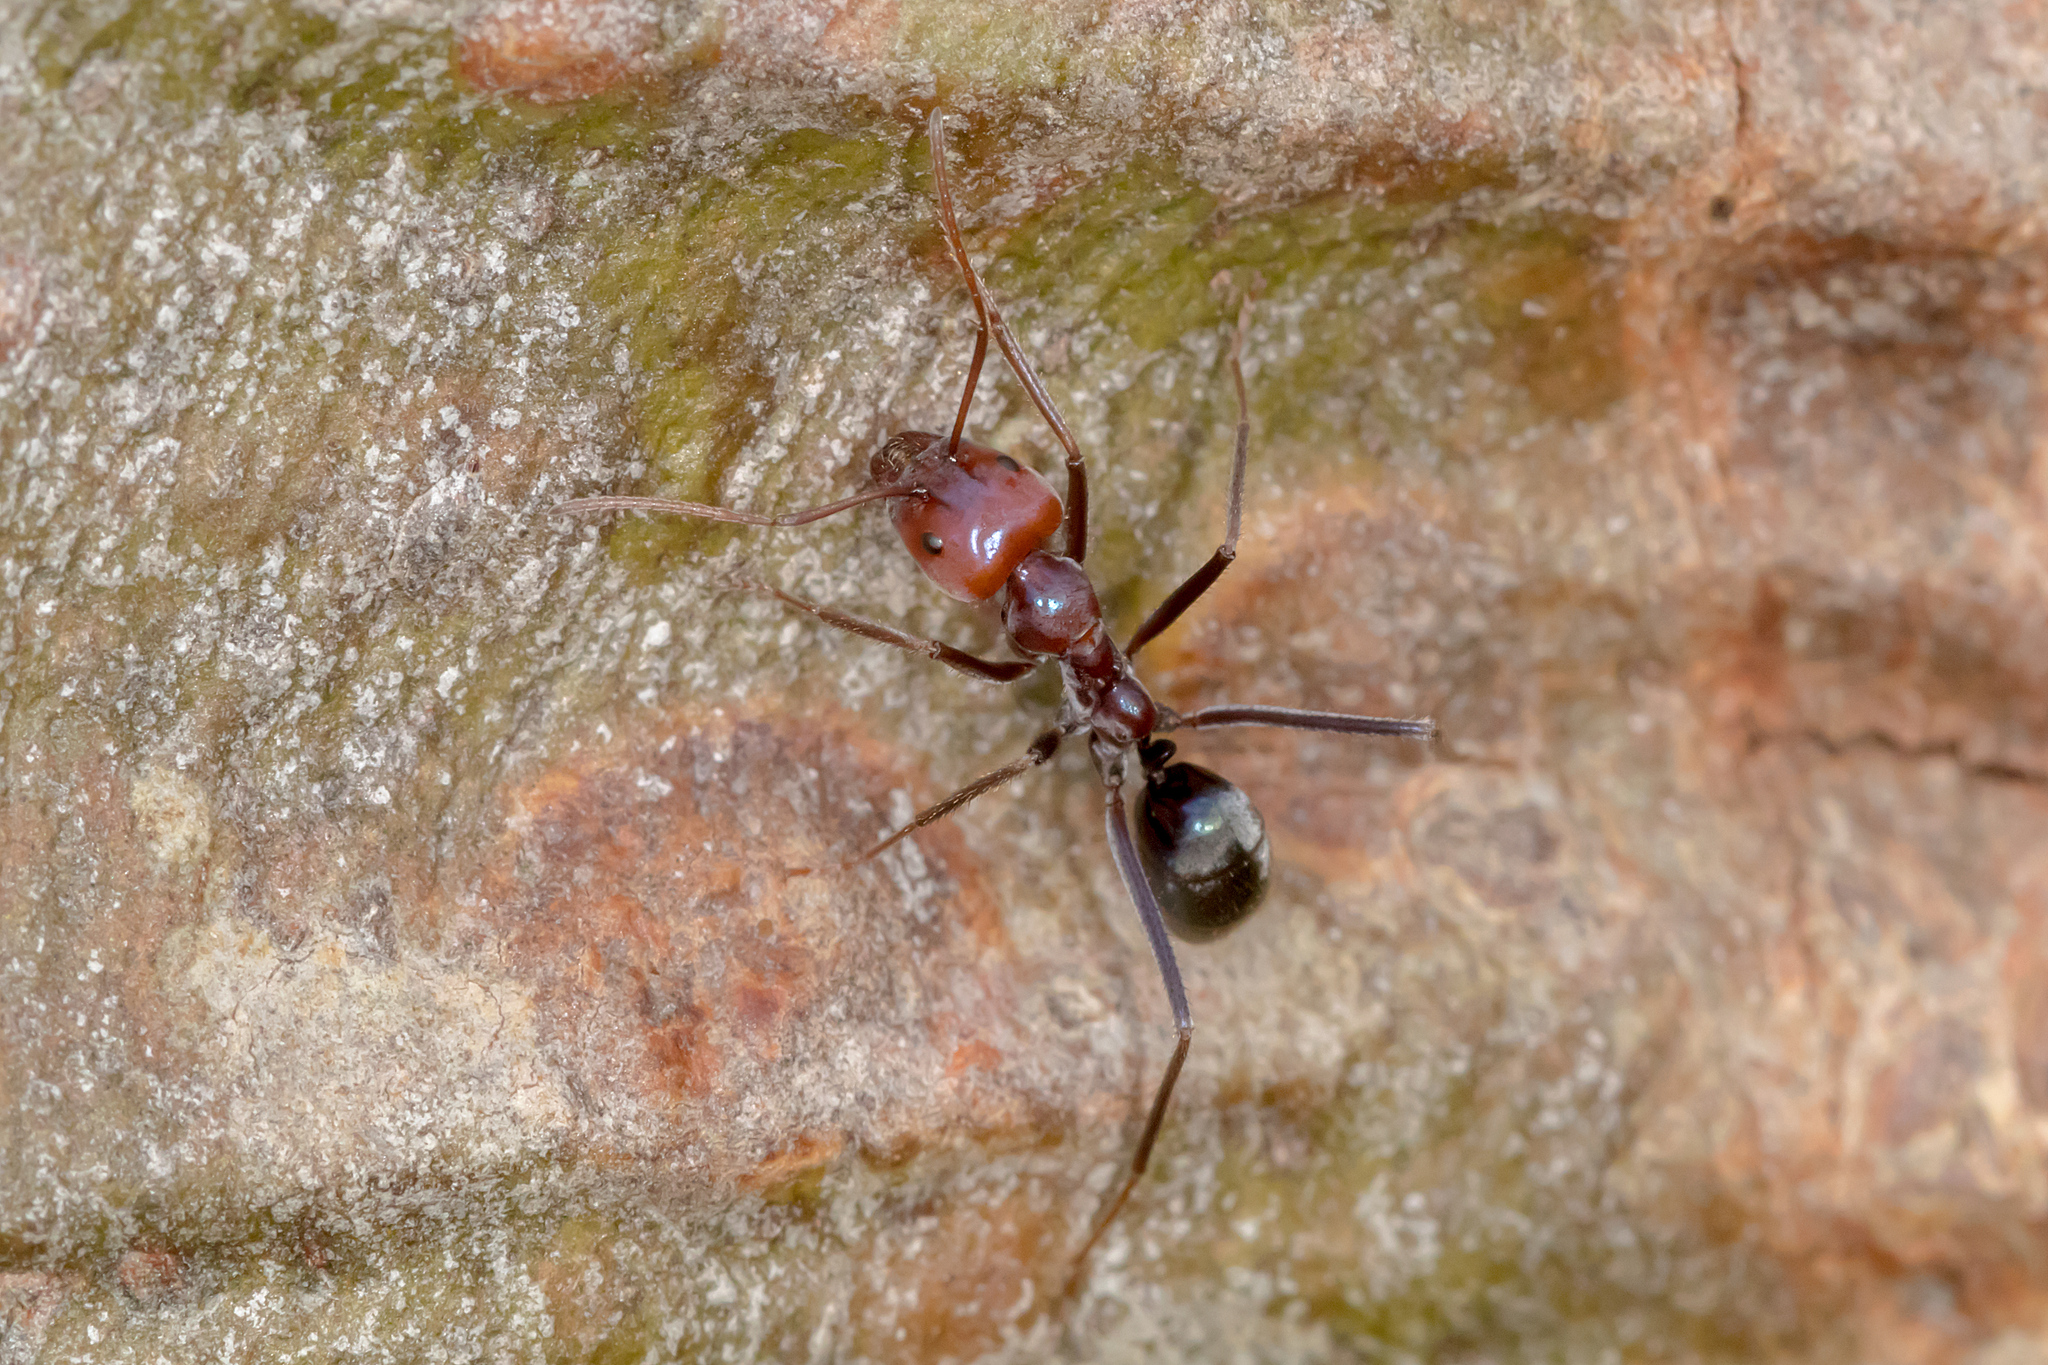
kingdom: Animalia
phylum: Arthropoda
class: Insecta
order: Hymenoptera
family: Formicidae
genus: Iridomyrmex
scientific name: Iridomyrmex purpureus
